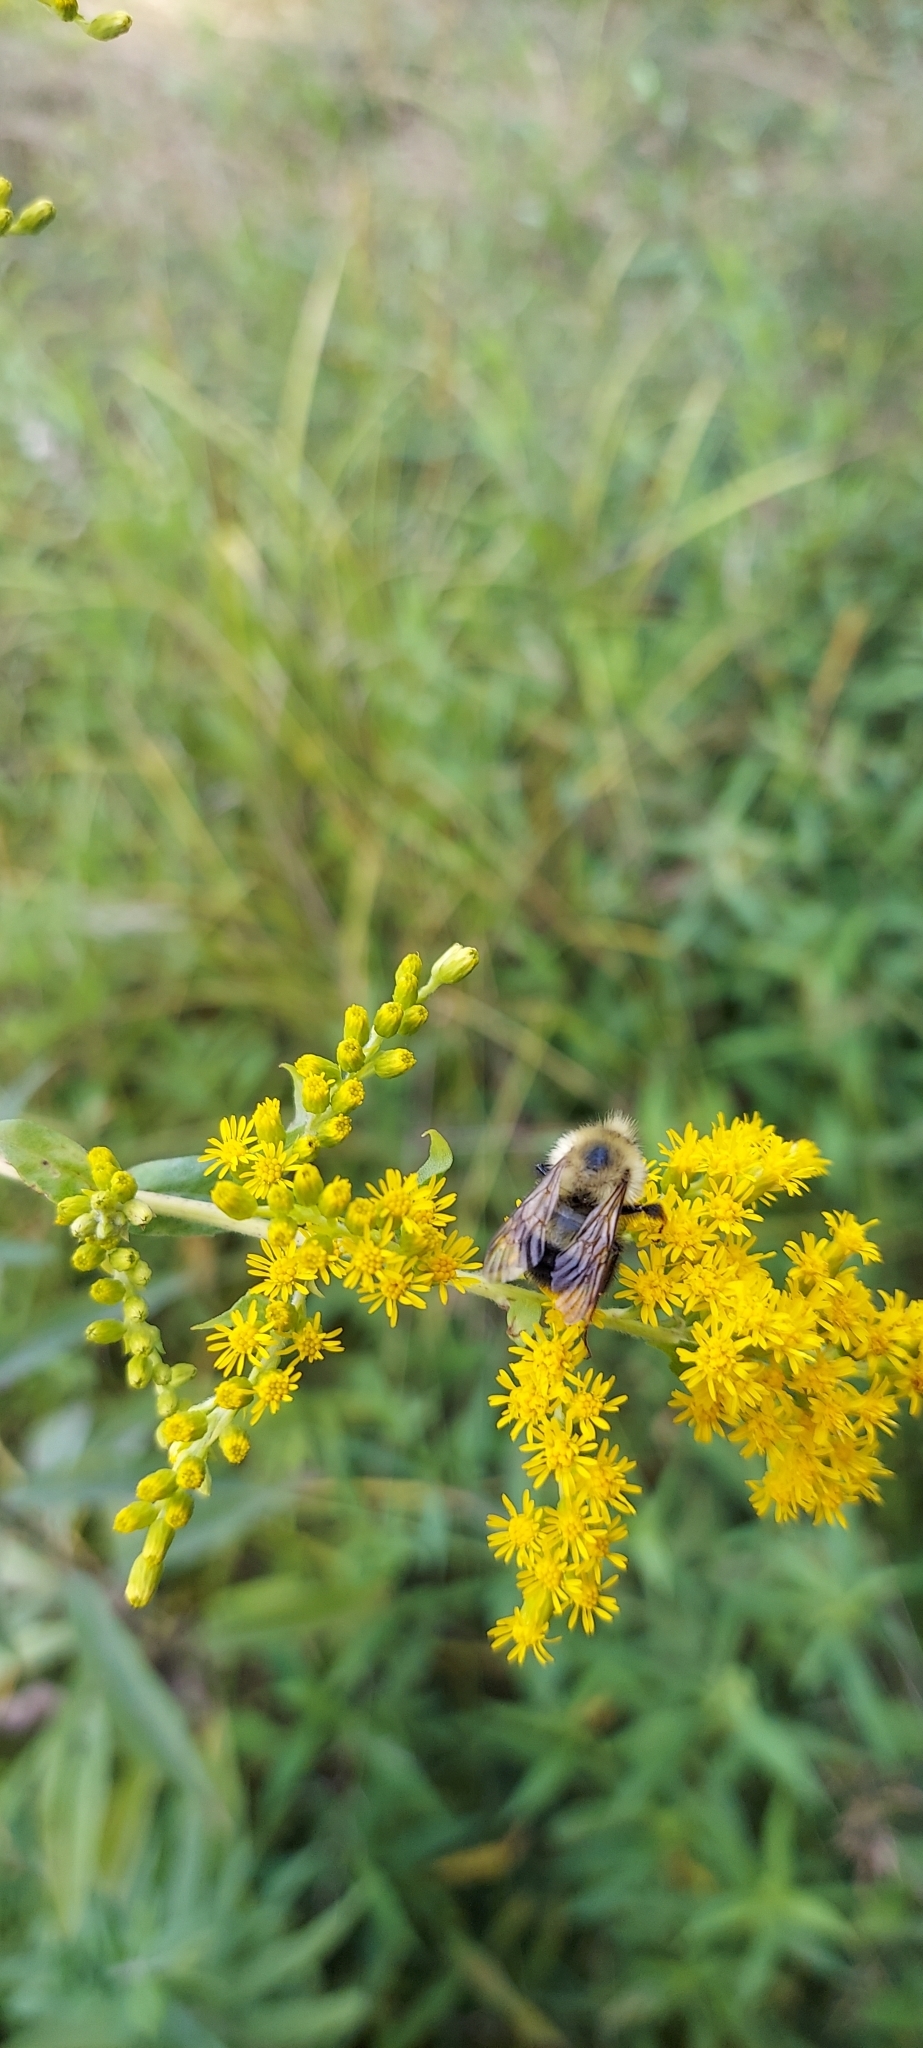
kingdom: Animalia
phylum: Arthropoda
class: Insecta
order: Hymenoptera
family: Apidae
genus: Pyrobombus
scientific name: Pyrobombus
